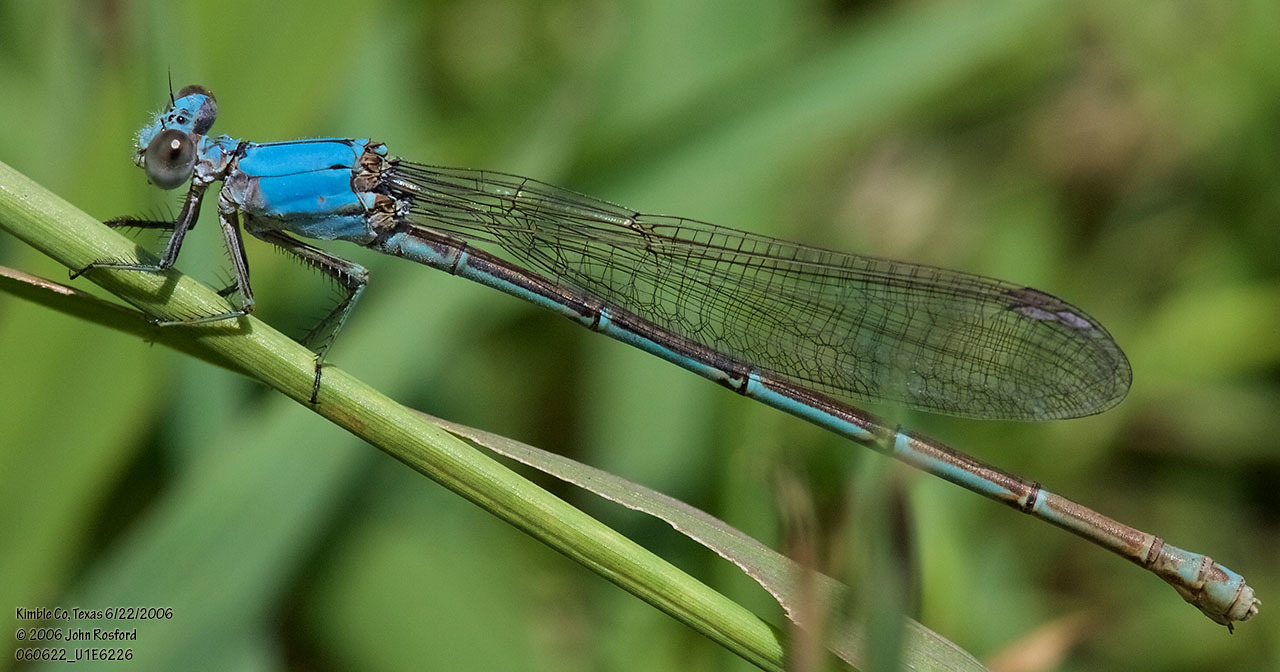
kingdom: Animalia
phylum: Arthropoda
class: Insecta
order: Odonata
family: Coenagrionidae
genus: Argia
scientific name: Argia moesta
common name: Powdered dancer
